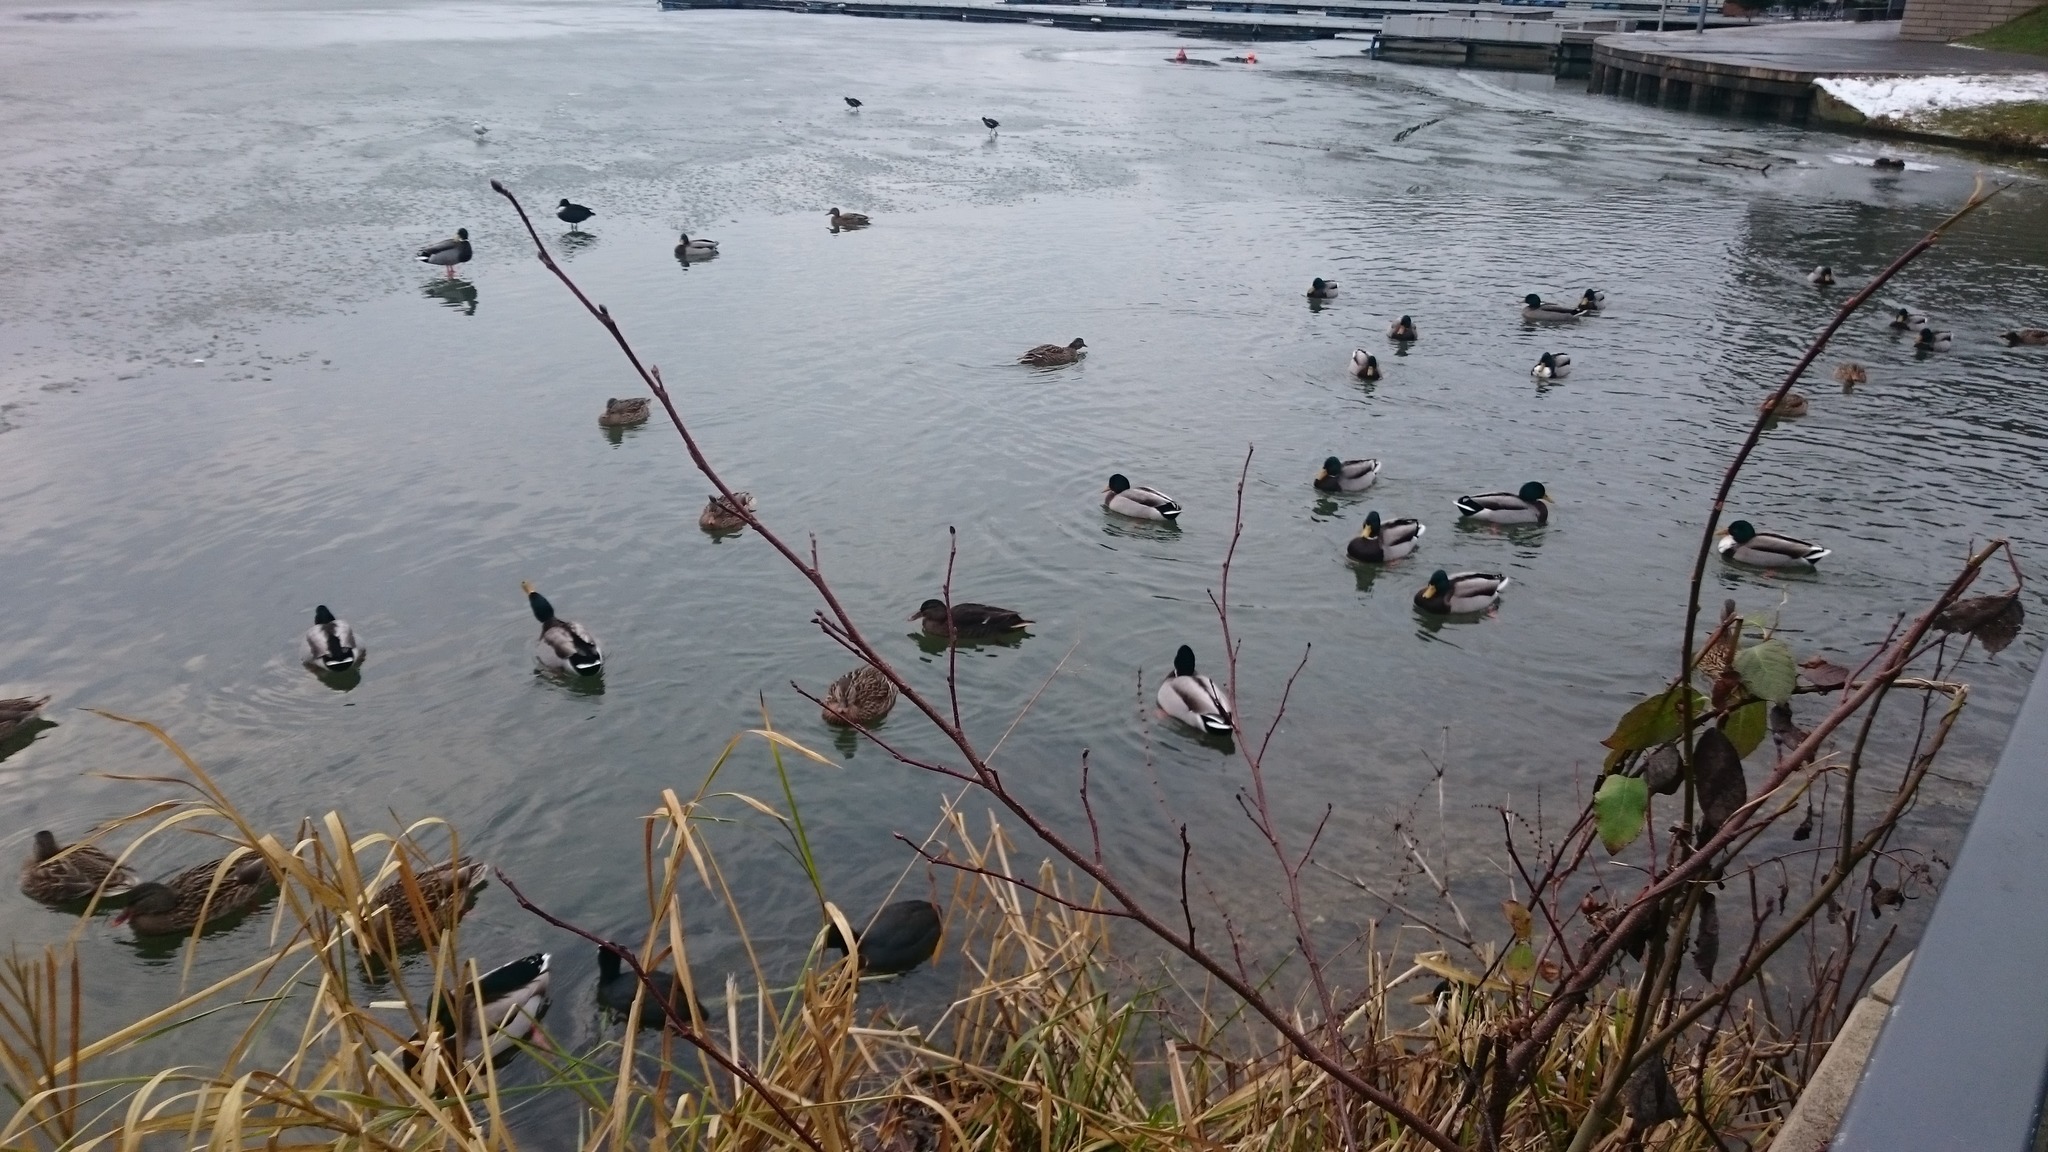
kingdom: Animalia
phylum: Chordata
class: Aves
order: Anseriformes
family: Anatidae
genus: Anas
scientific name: Anas platyrhynchos
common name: Mallard
